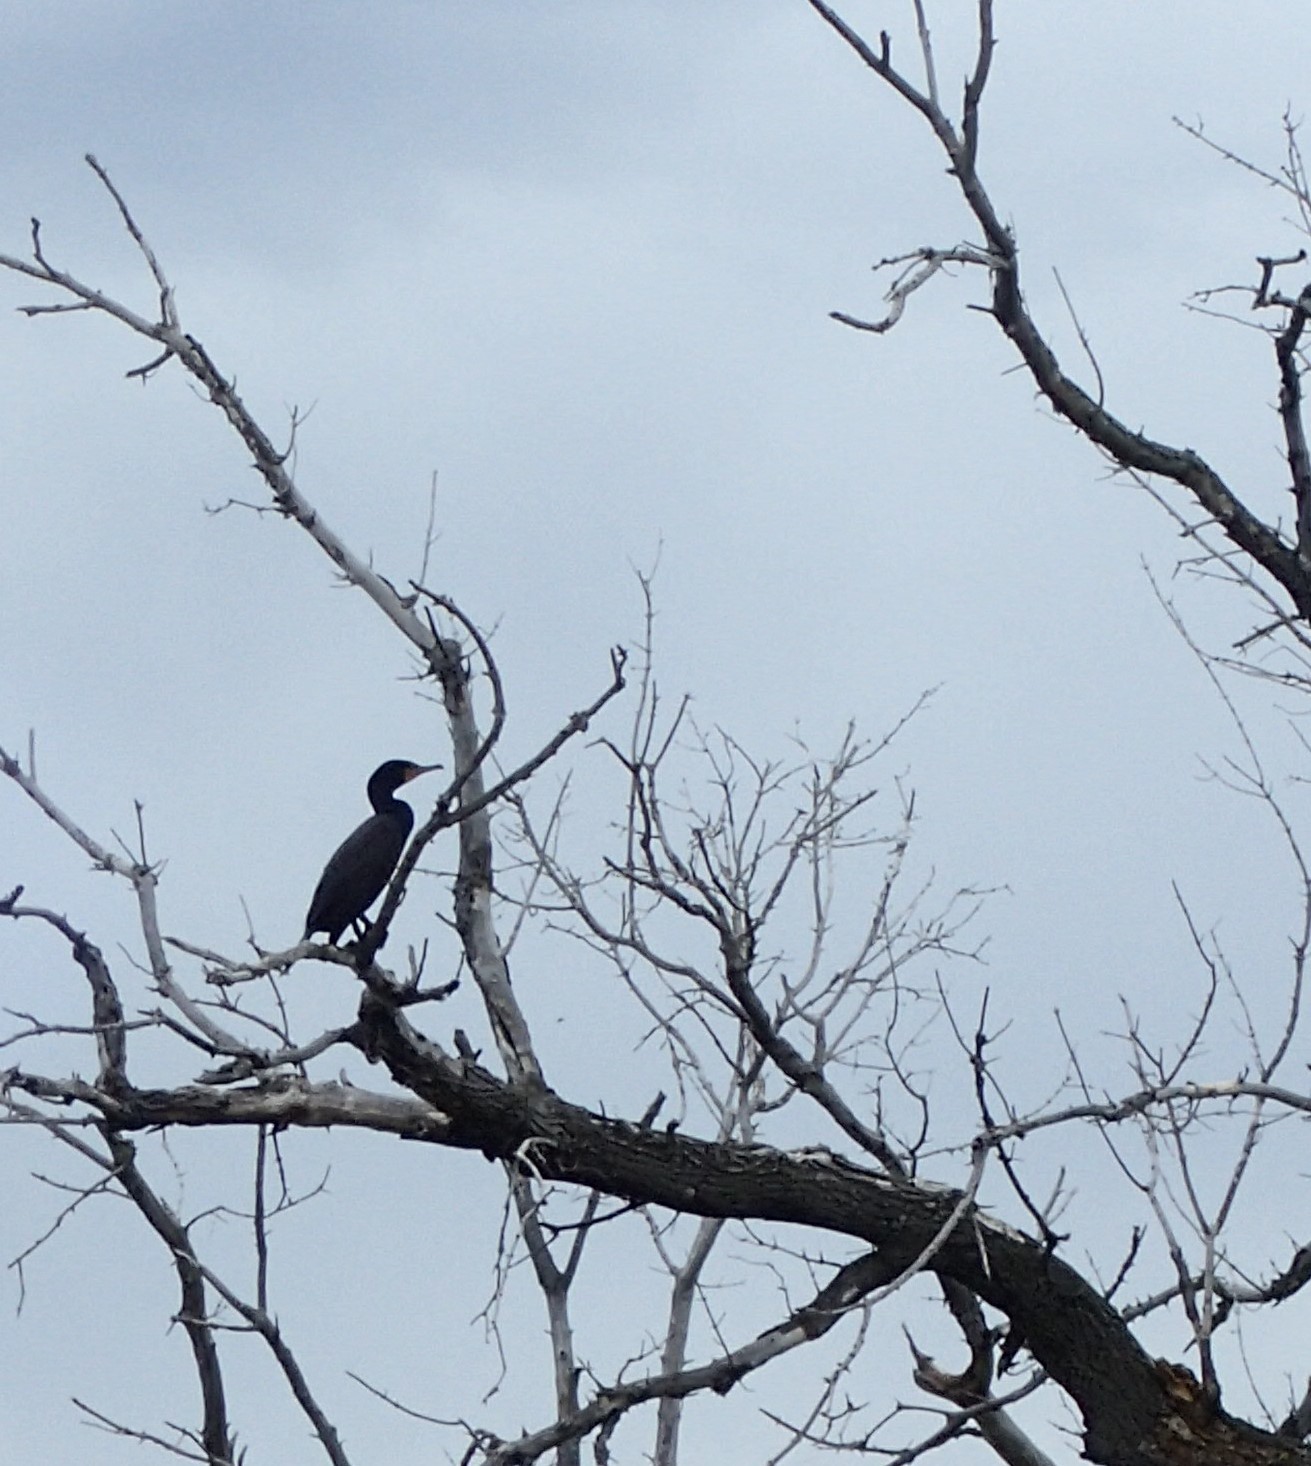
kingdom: Animalia
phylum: Chordata
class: Aves
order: Suliformes
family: Phalacrocoracidae
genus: Phalacrocorax
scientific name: Phalacrocorax auritus
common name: Double-crested cormorant
